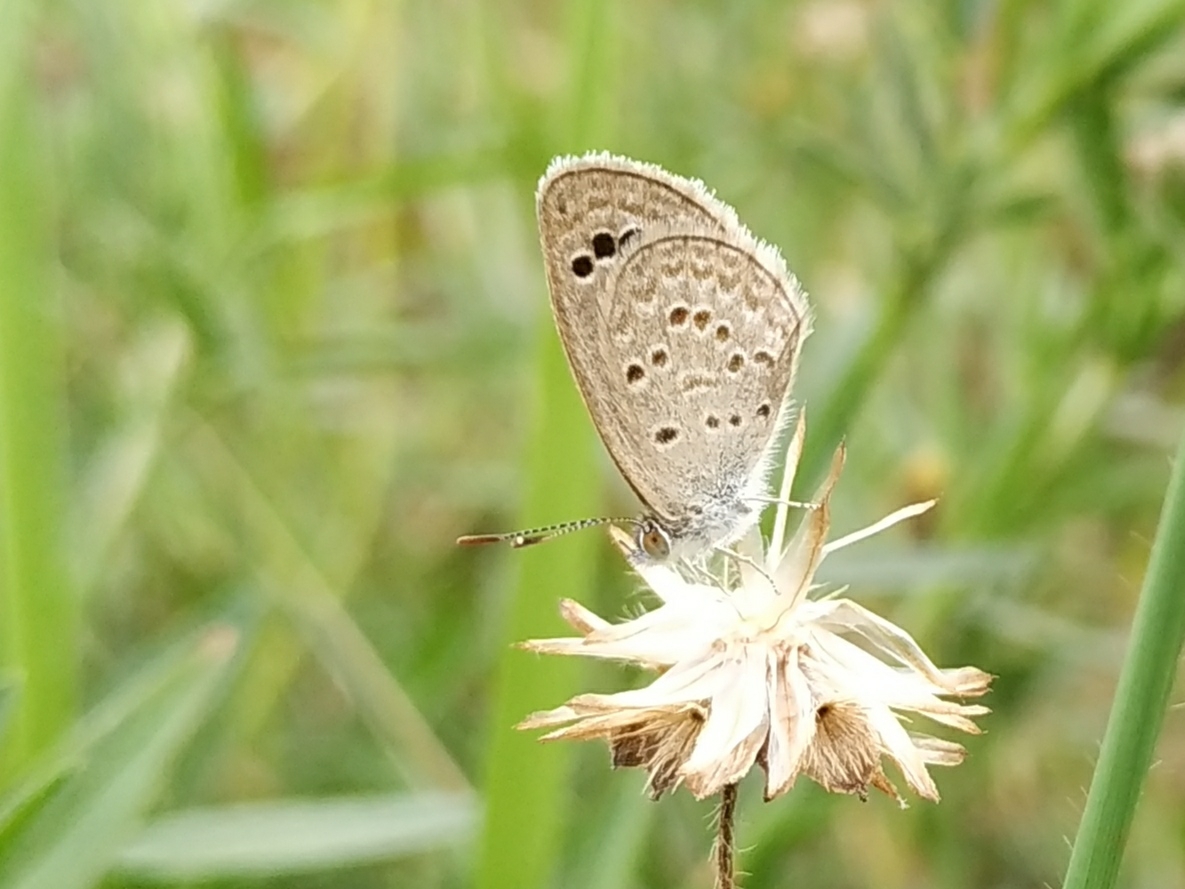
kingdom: Animalia
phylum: Arthropoda
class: Insecta
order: Lepidoptera
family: Lycaenidae
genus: Zizina
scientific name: Zizina otis
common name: Lesser grass blue
